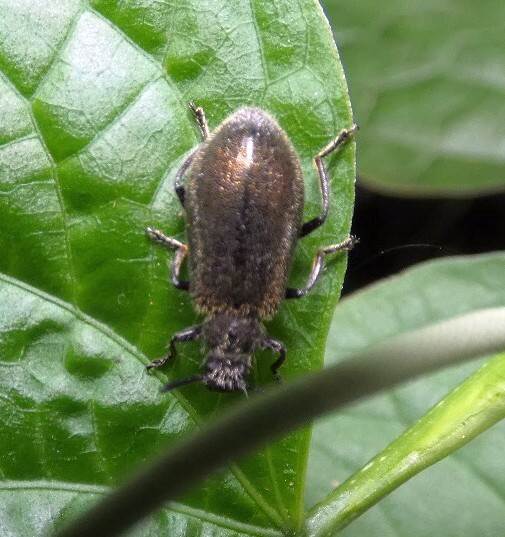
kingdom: Animalia
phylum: Arthropoda
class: Insecta
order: Coleoptera
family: Tenebrionidae
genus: Lagria
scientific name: Lagria villosa
